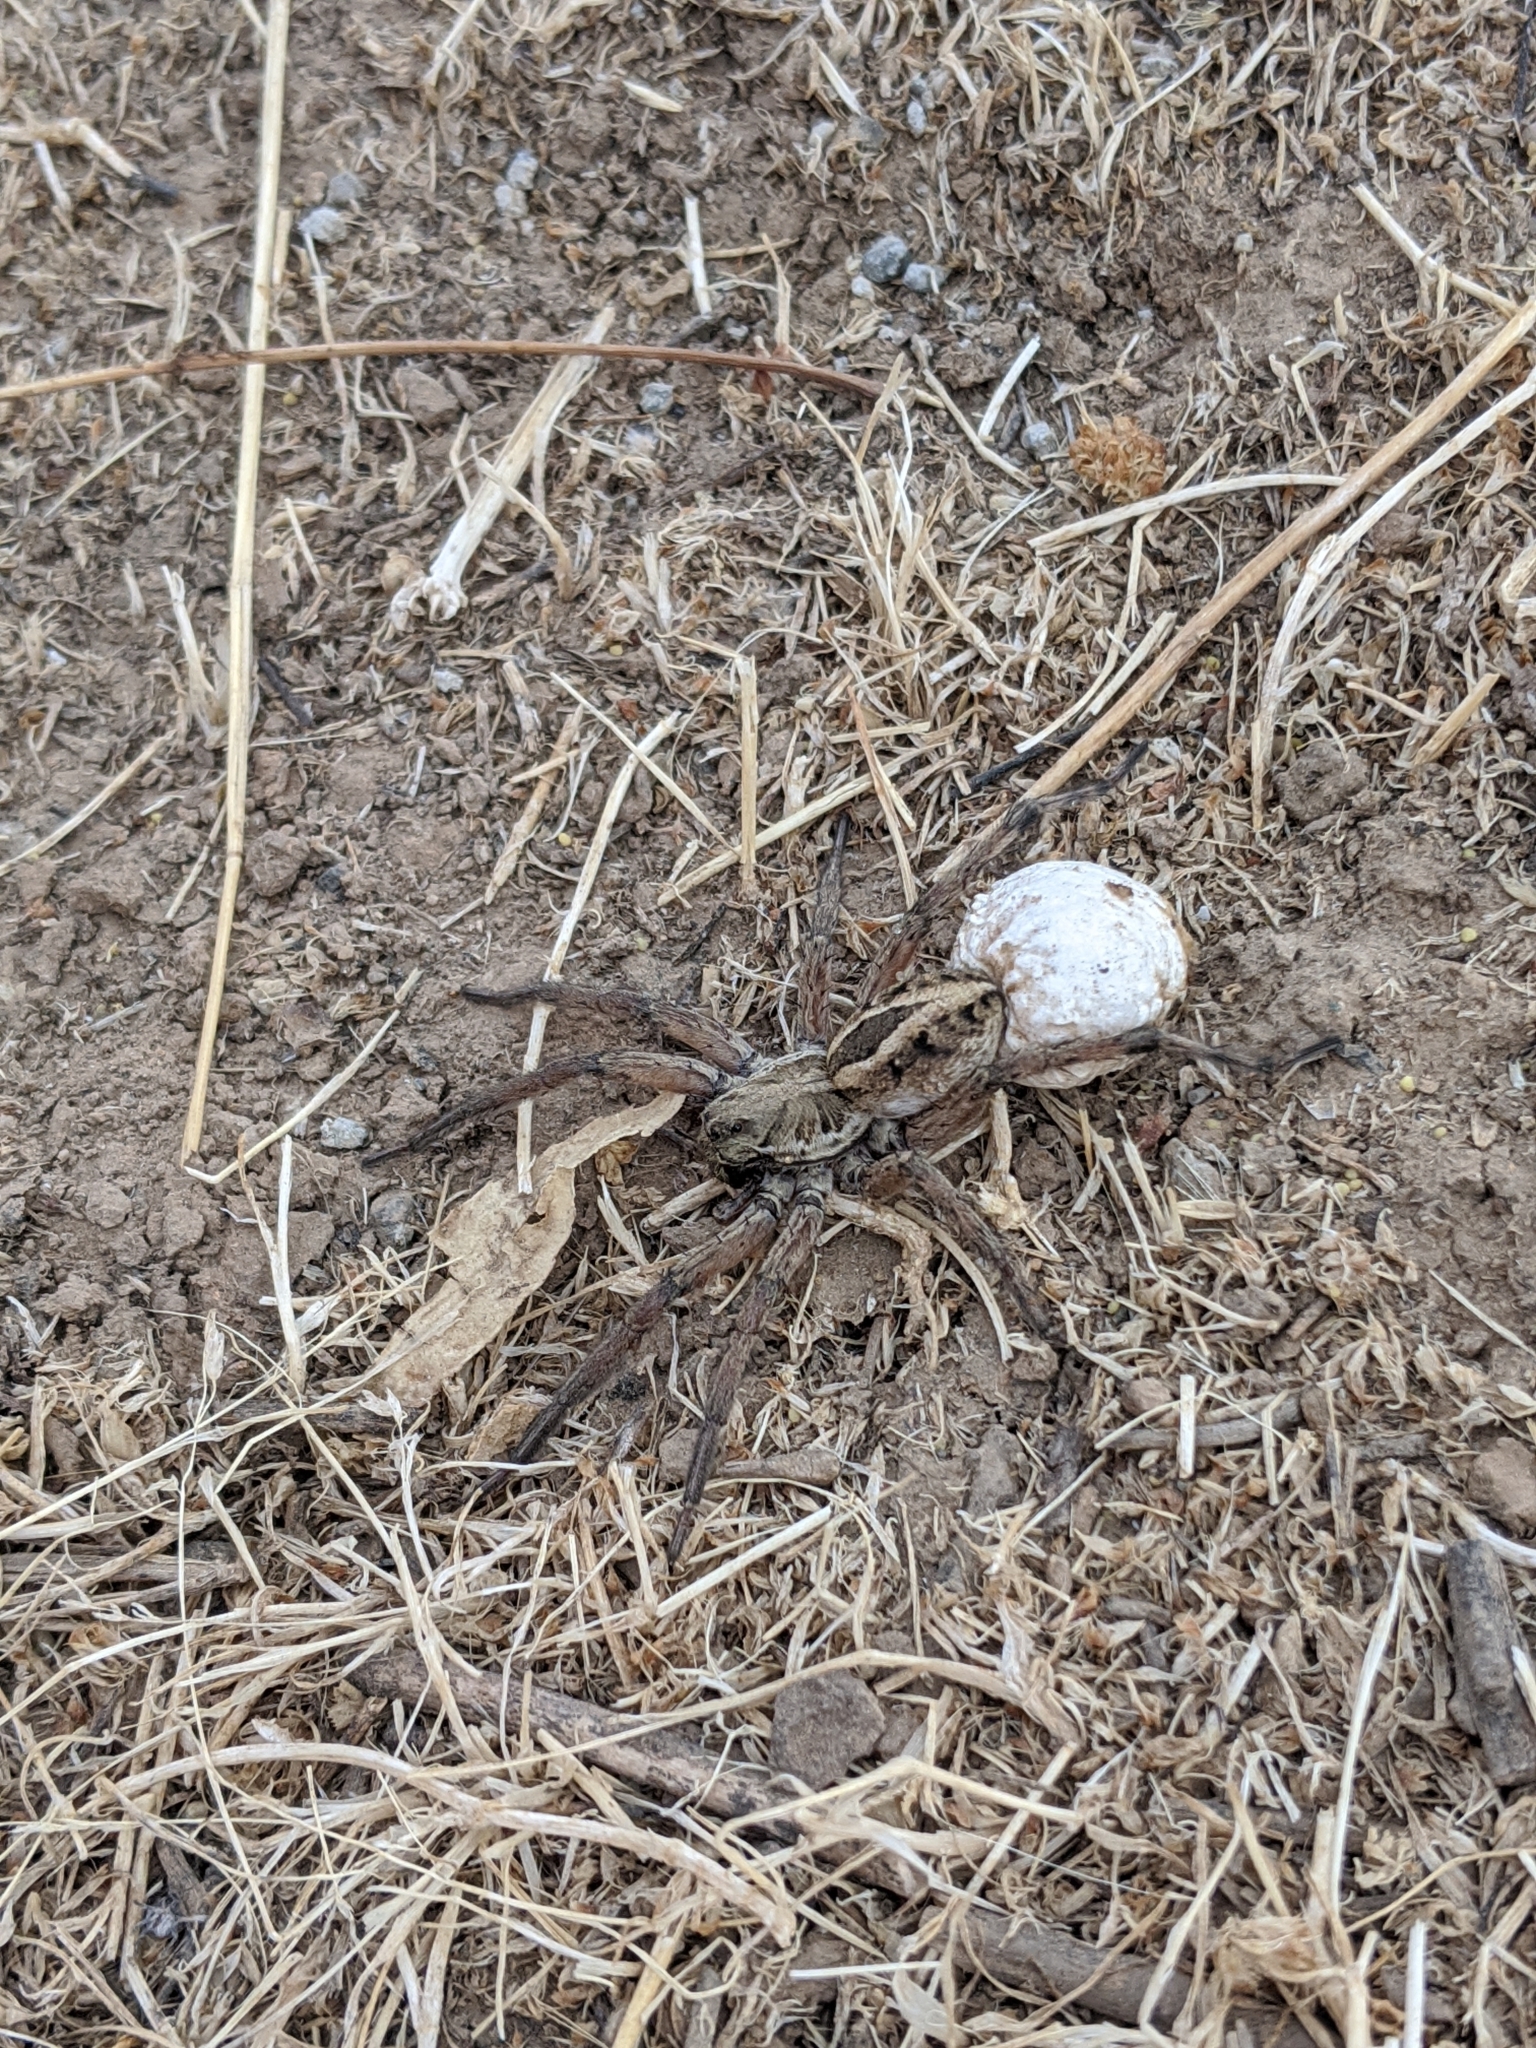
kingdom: Animalia
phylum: Arthropoda
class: Arachnida
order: Araneae
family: Lycosidae
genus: Schizocosa
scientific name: Schizocosa mccooki
